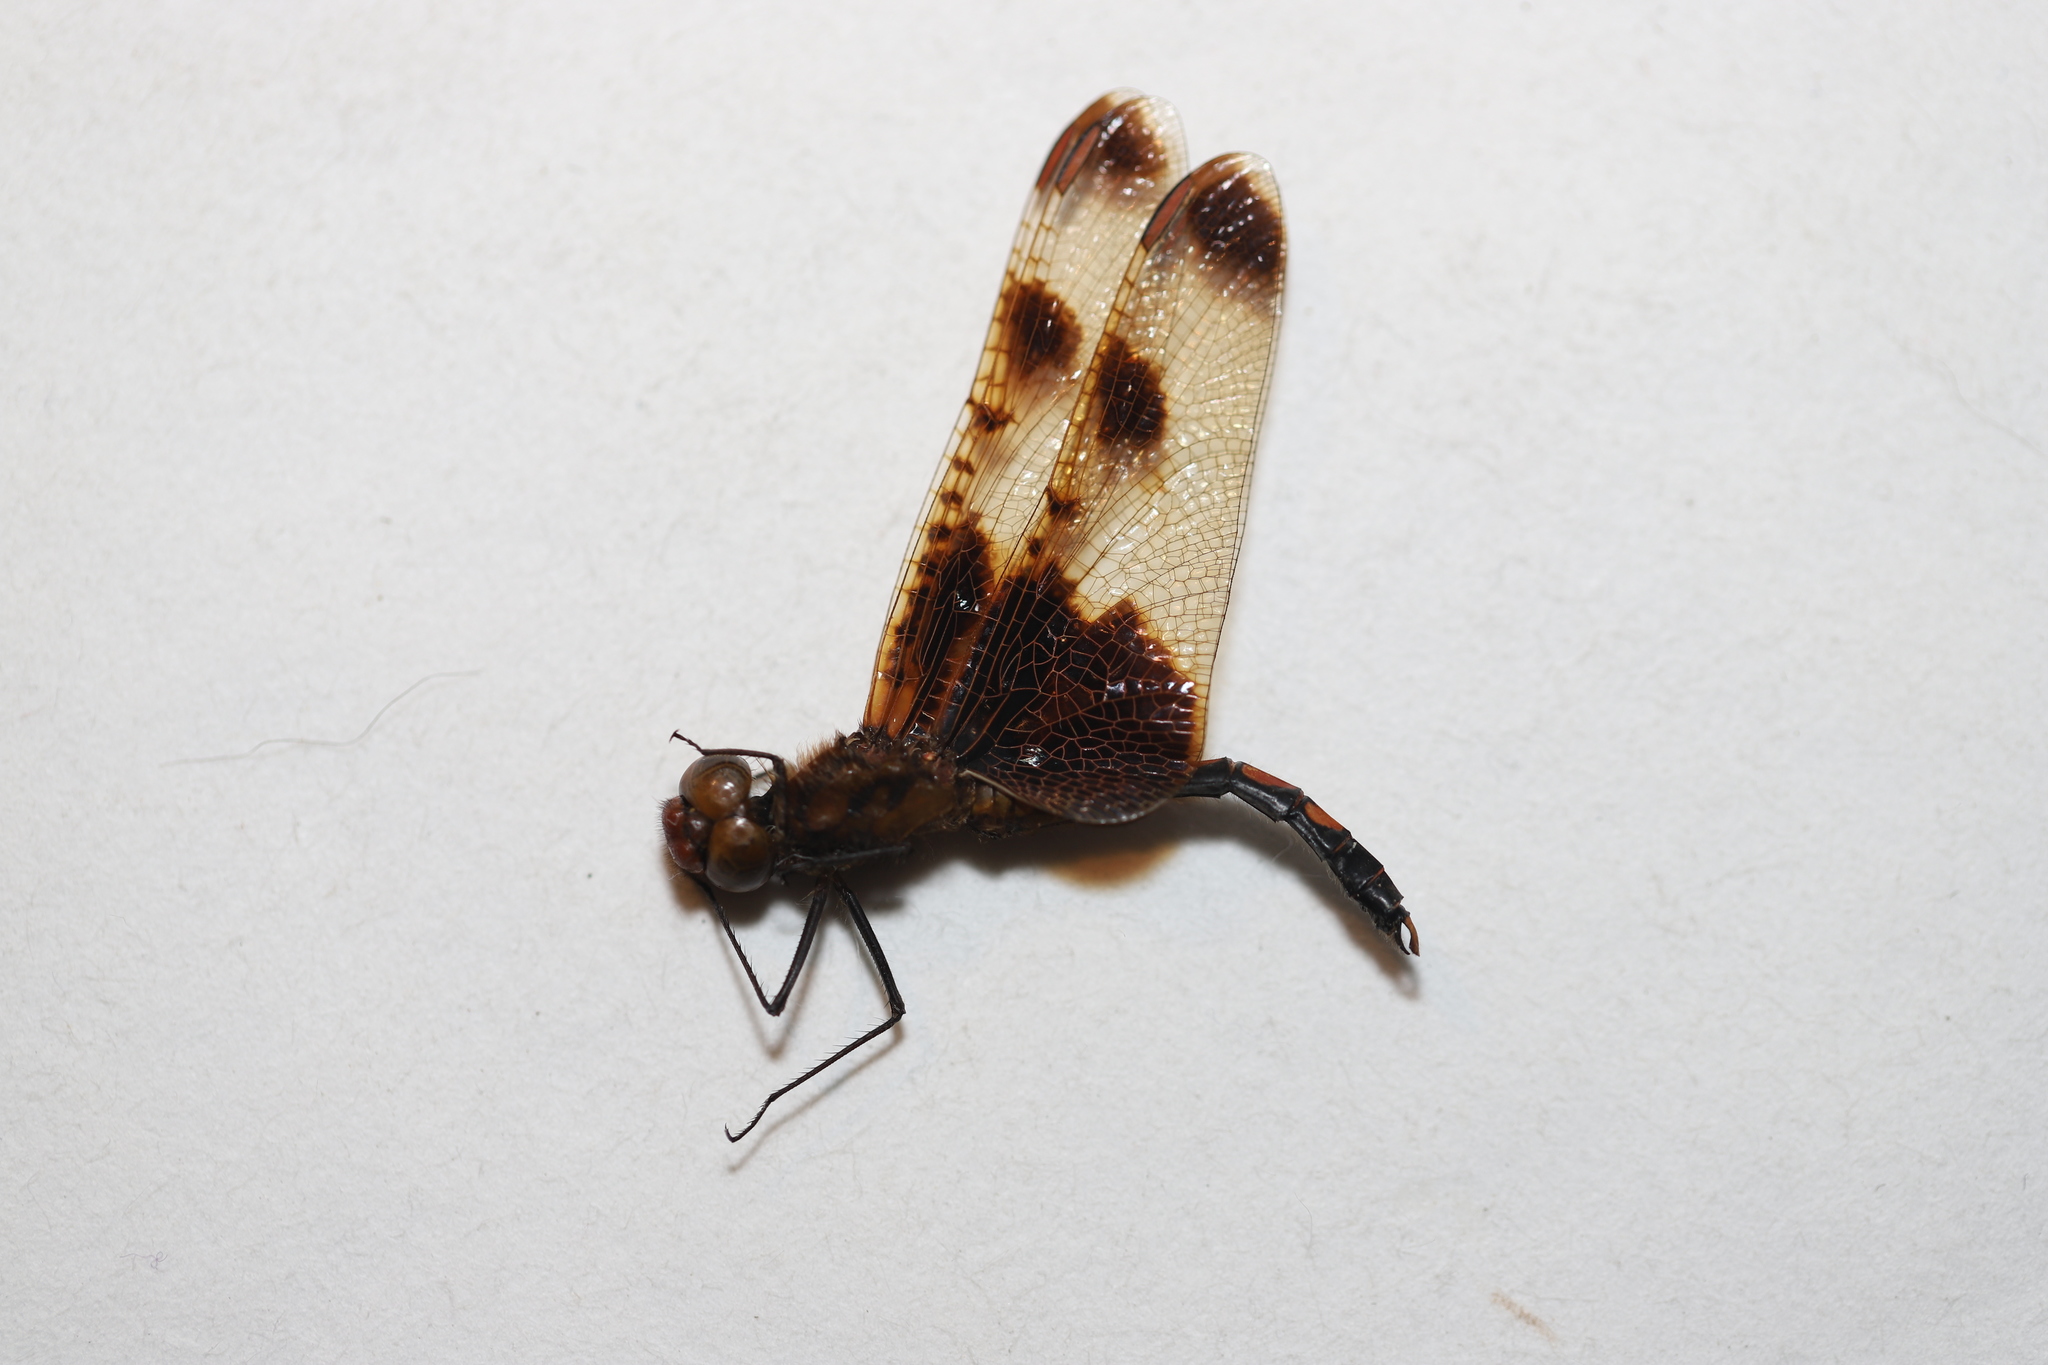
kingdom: Animalia
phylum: Arthropoda
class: Insecta
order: Odonata
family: Libellulidae
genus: Celithemis
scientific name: Celithemis elisa
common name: Calico pennant
